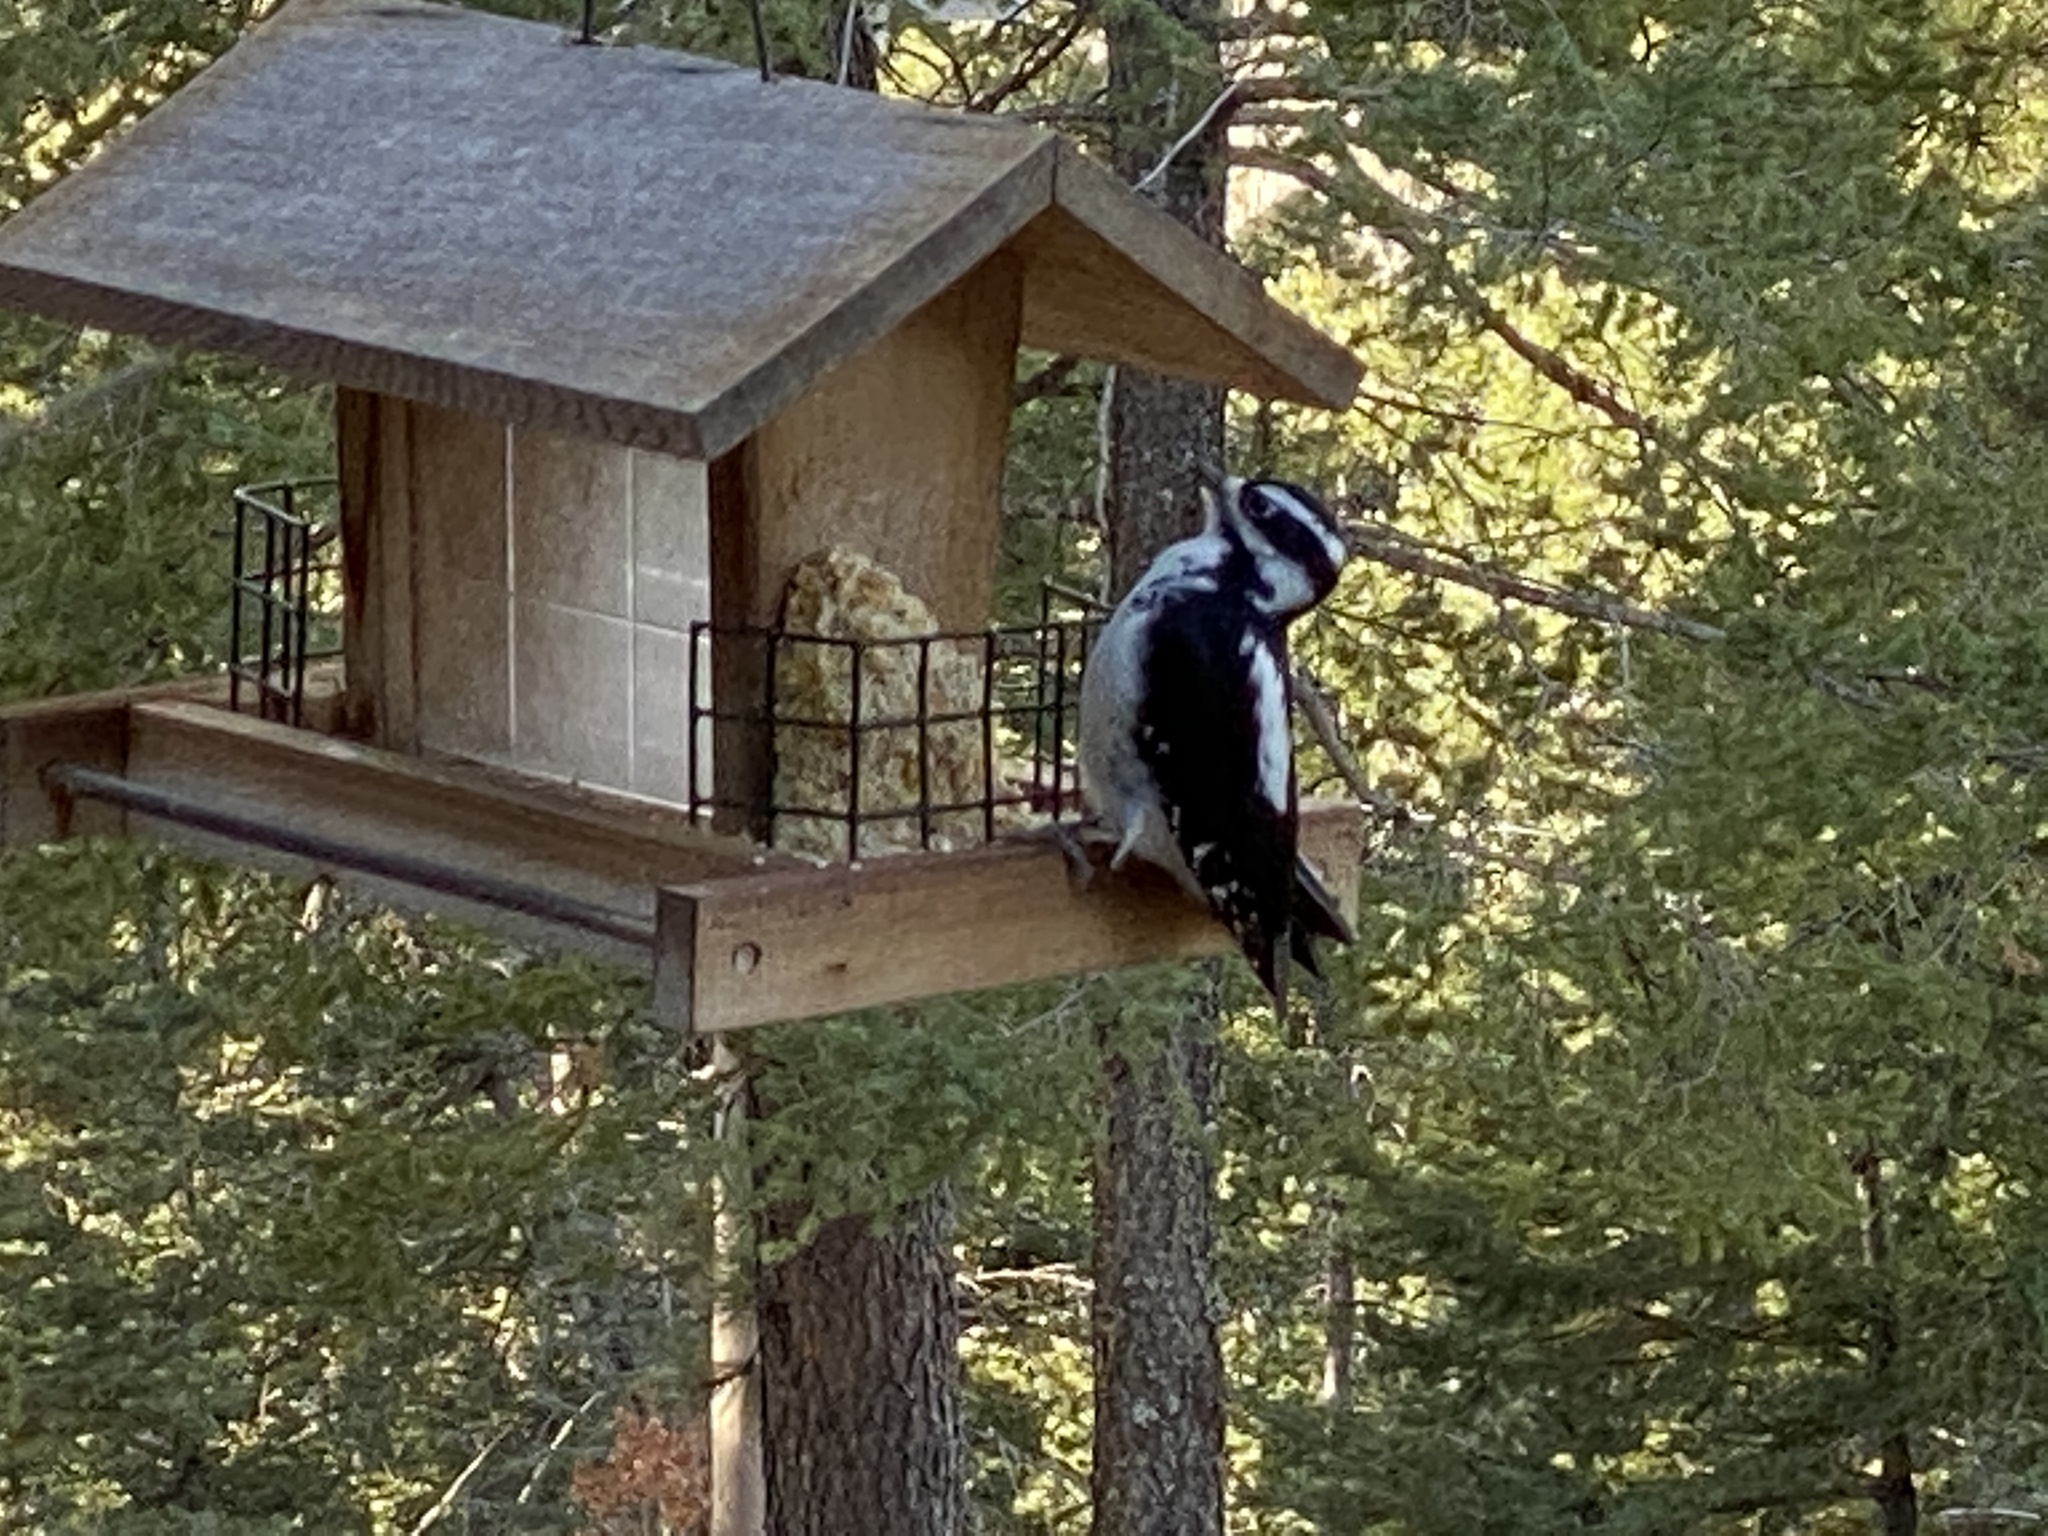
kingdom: Animalia
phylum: Chordata
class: Aves
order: Piciformes
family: Picidae
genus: Leuconotopicus
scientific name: Leuconotopicus villosus
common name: Hairy woodpecker
